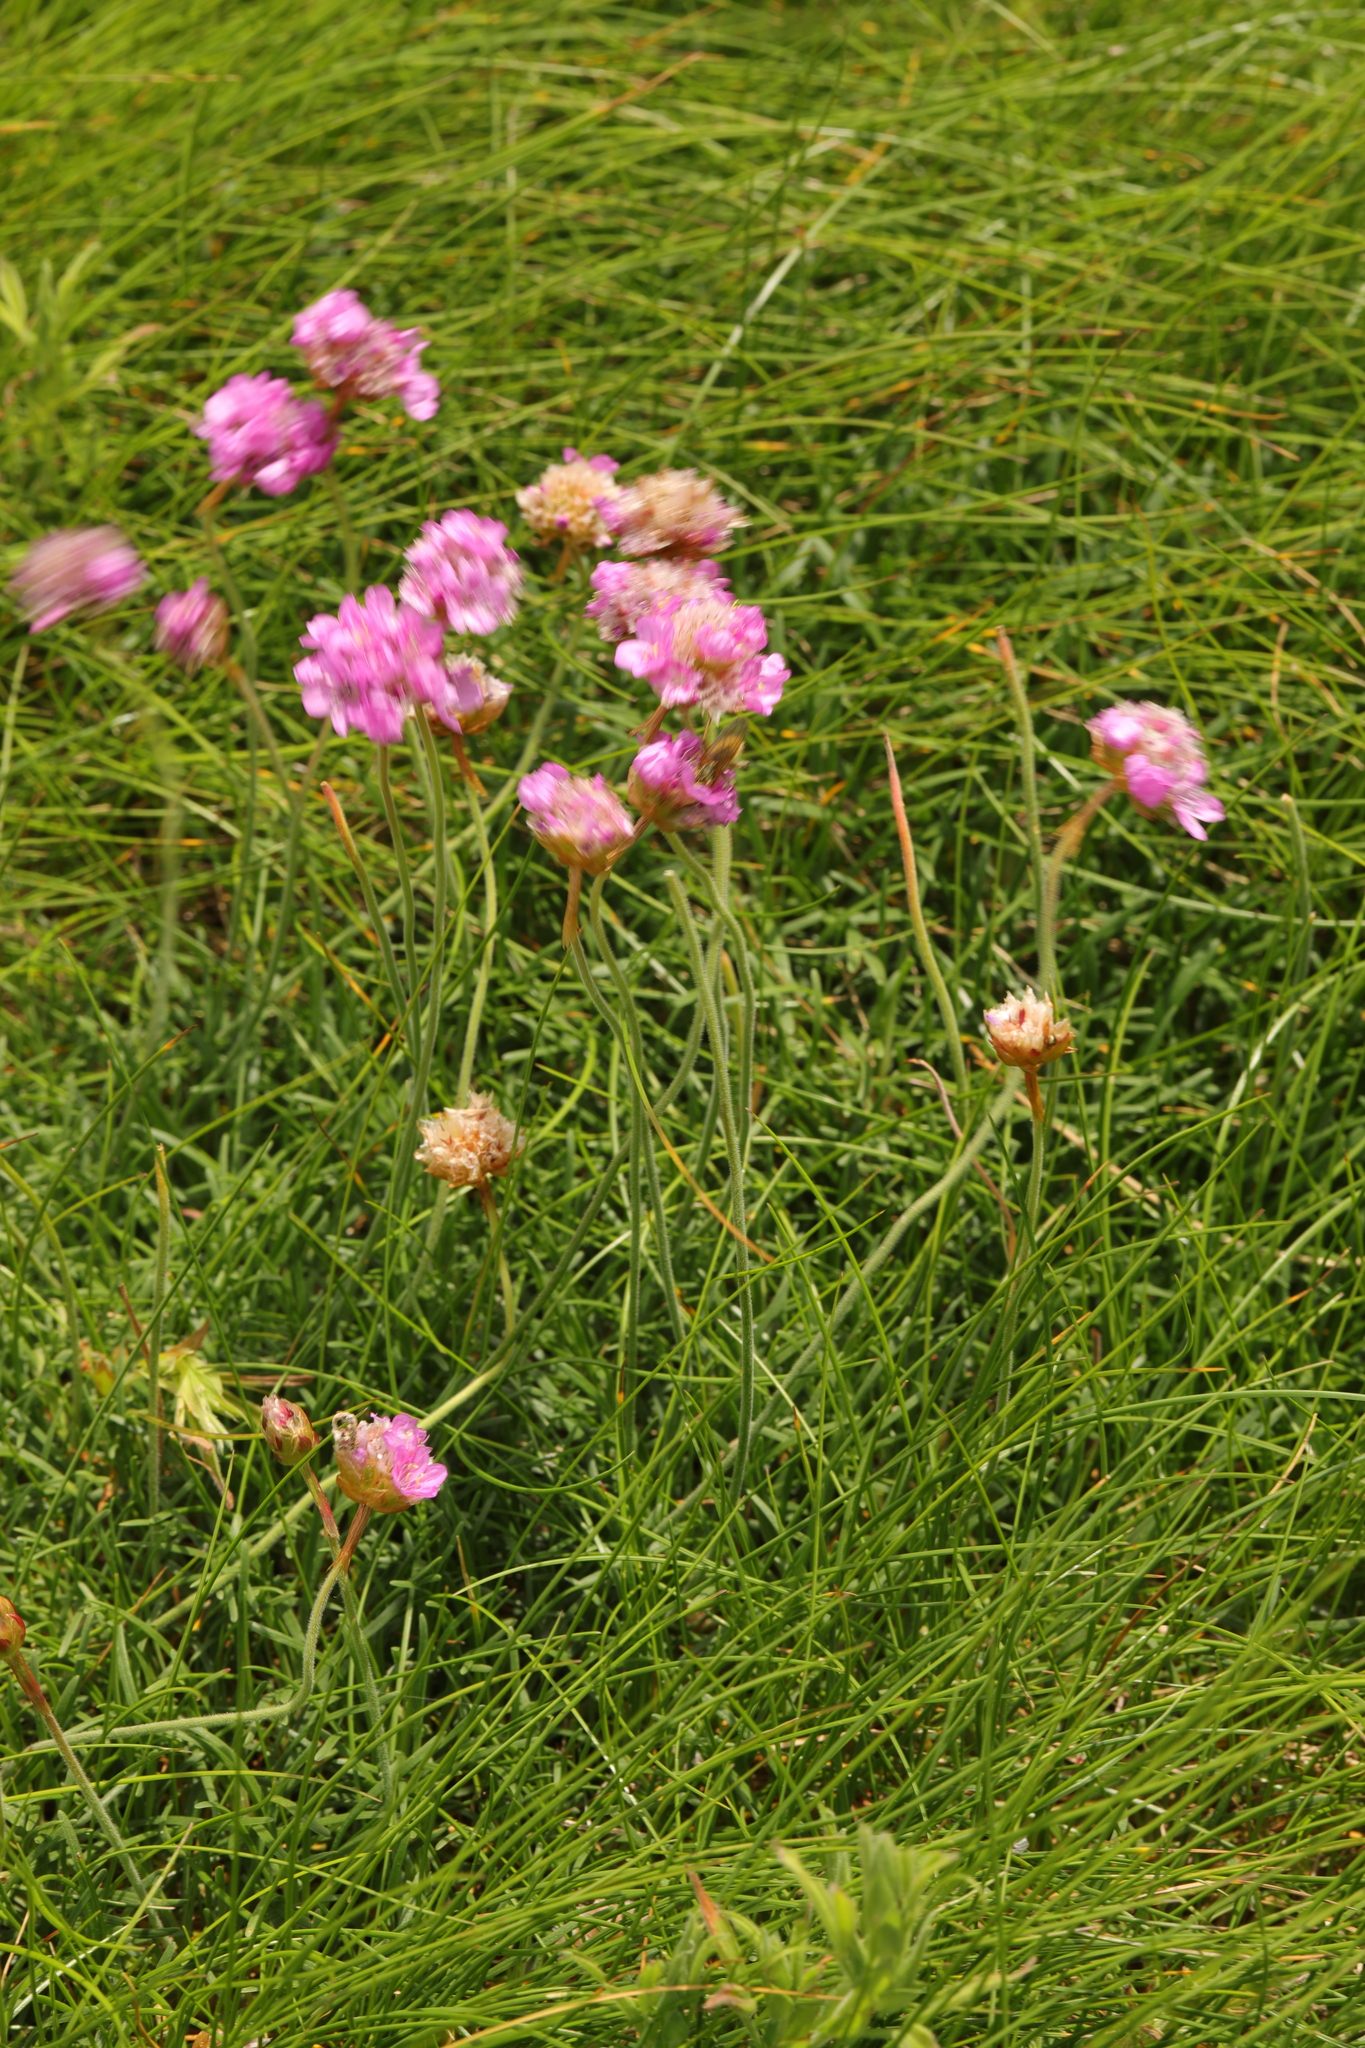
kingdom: Plantae
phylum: Tracheophyta
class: Magnoliopsida
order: Caryophyllales
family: Plumbaginaceae
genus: Armeria
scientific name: Armeria maritima
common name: Thrift
